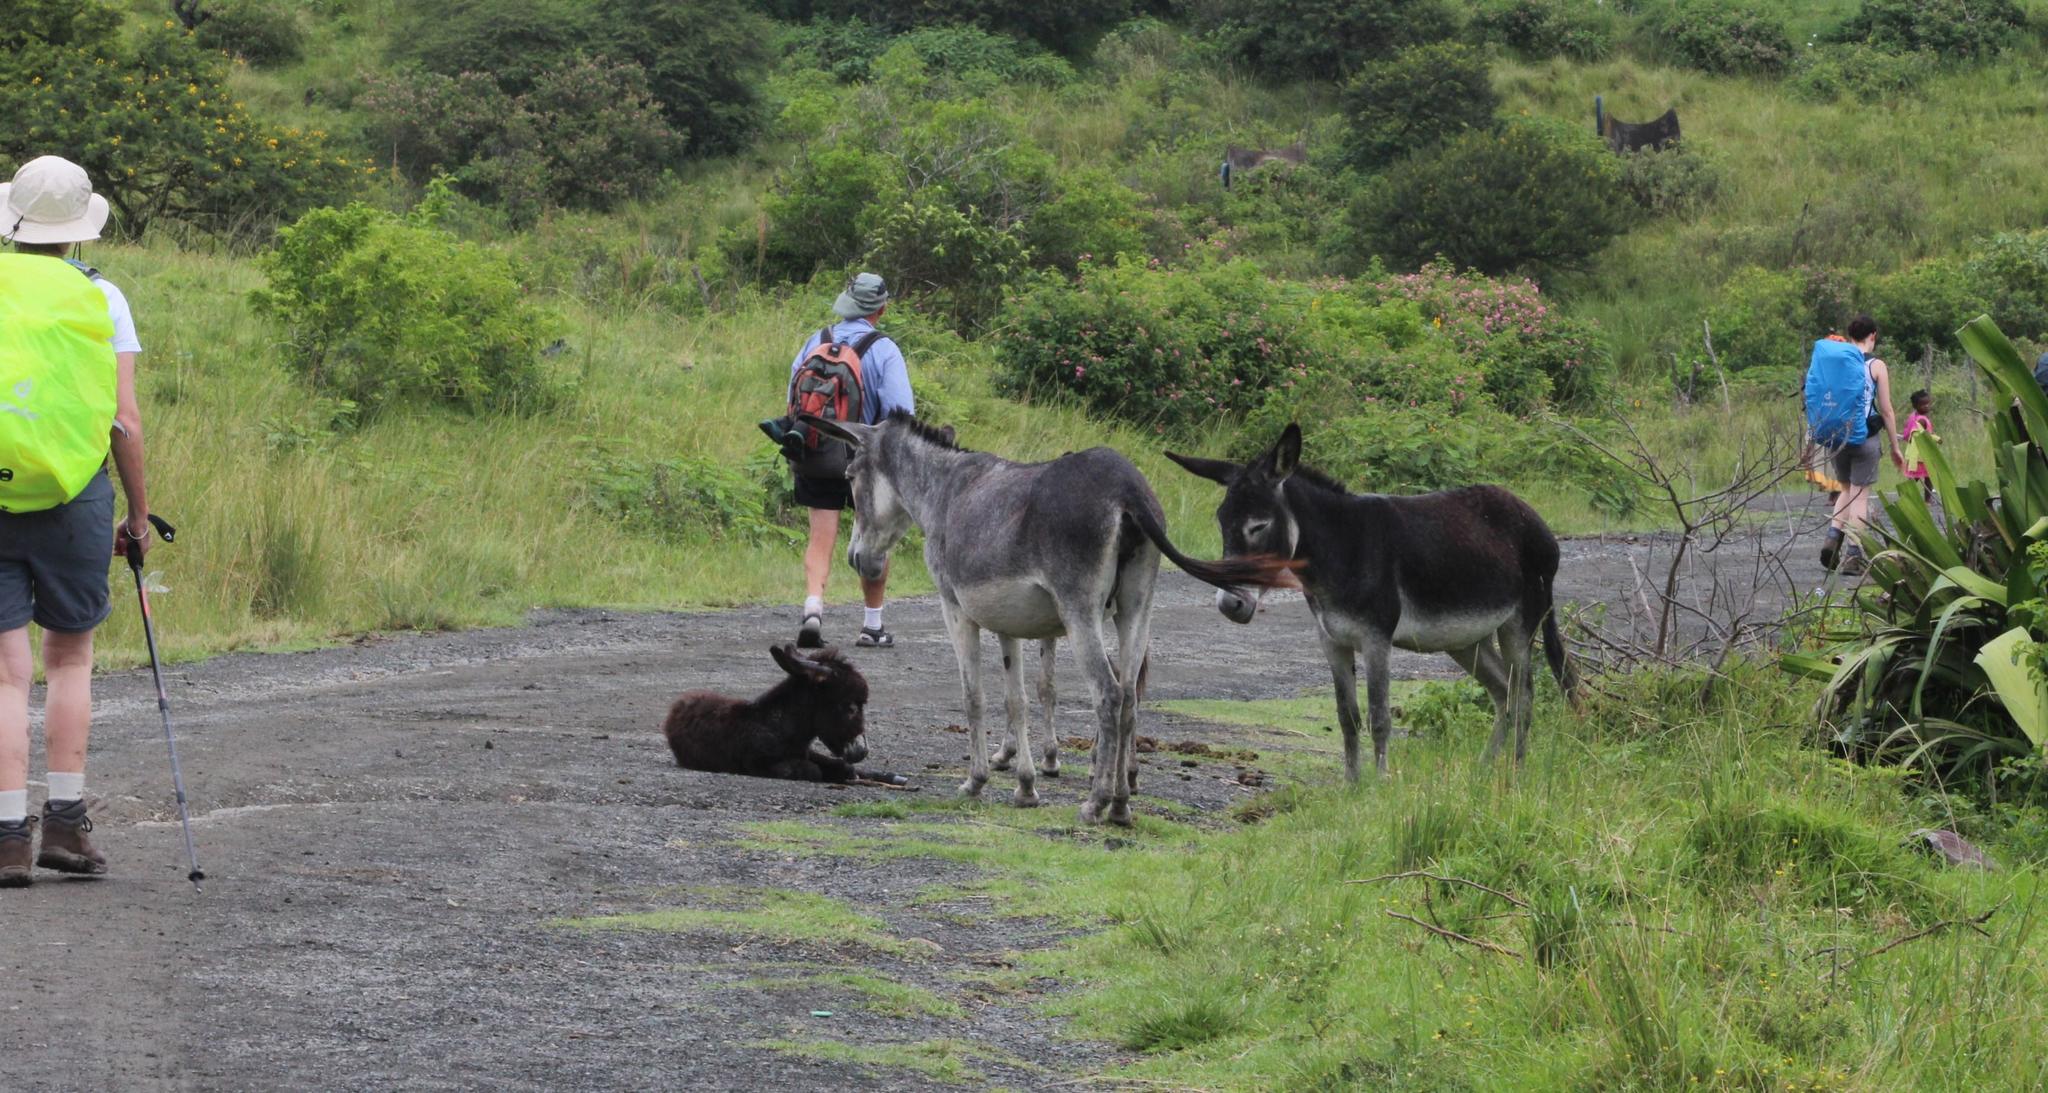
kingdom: Animalia
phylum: Chordata
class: Mammalia
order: Perissodactyla
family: Equidae
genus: Equus
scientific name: Equus asinus
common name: Ass
